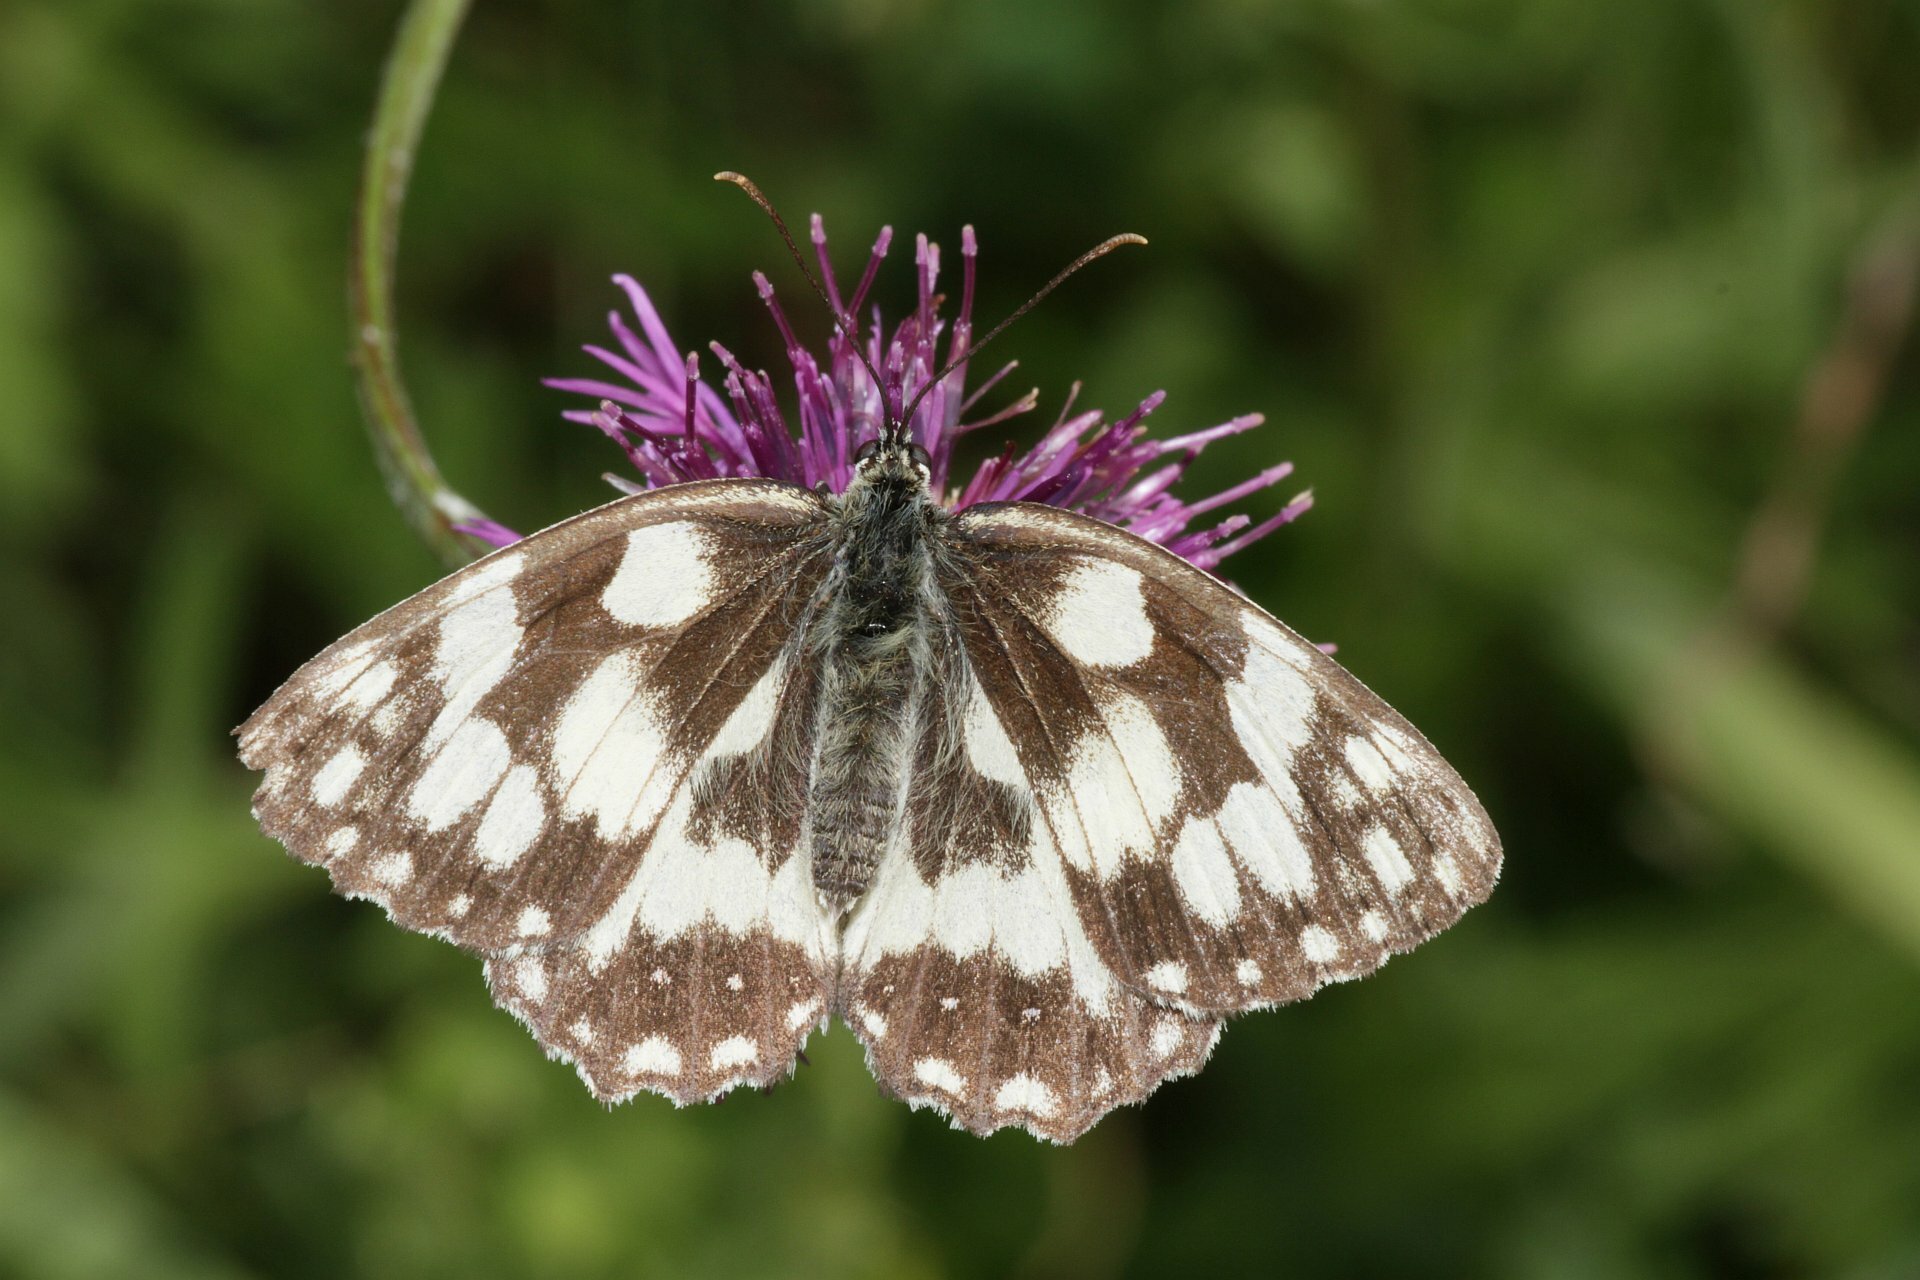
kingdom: Animalia
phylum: Arthropoda
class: Insecta
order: Lepidoptera
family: Nymphalidae
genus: Melanargia
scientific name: Melanargia galathea
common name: Marbled white
